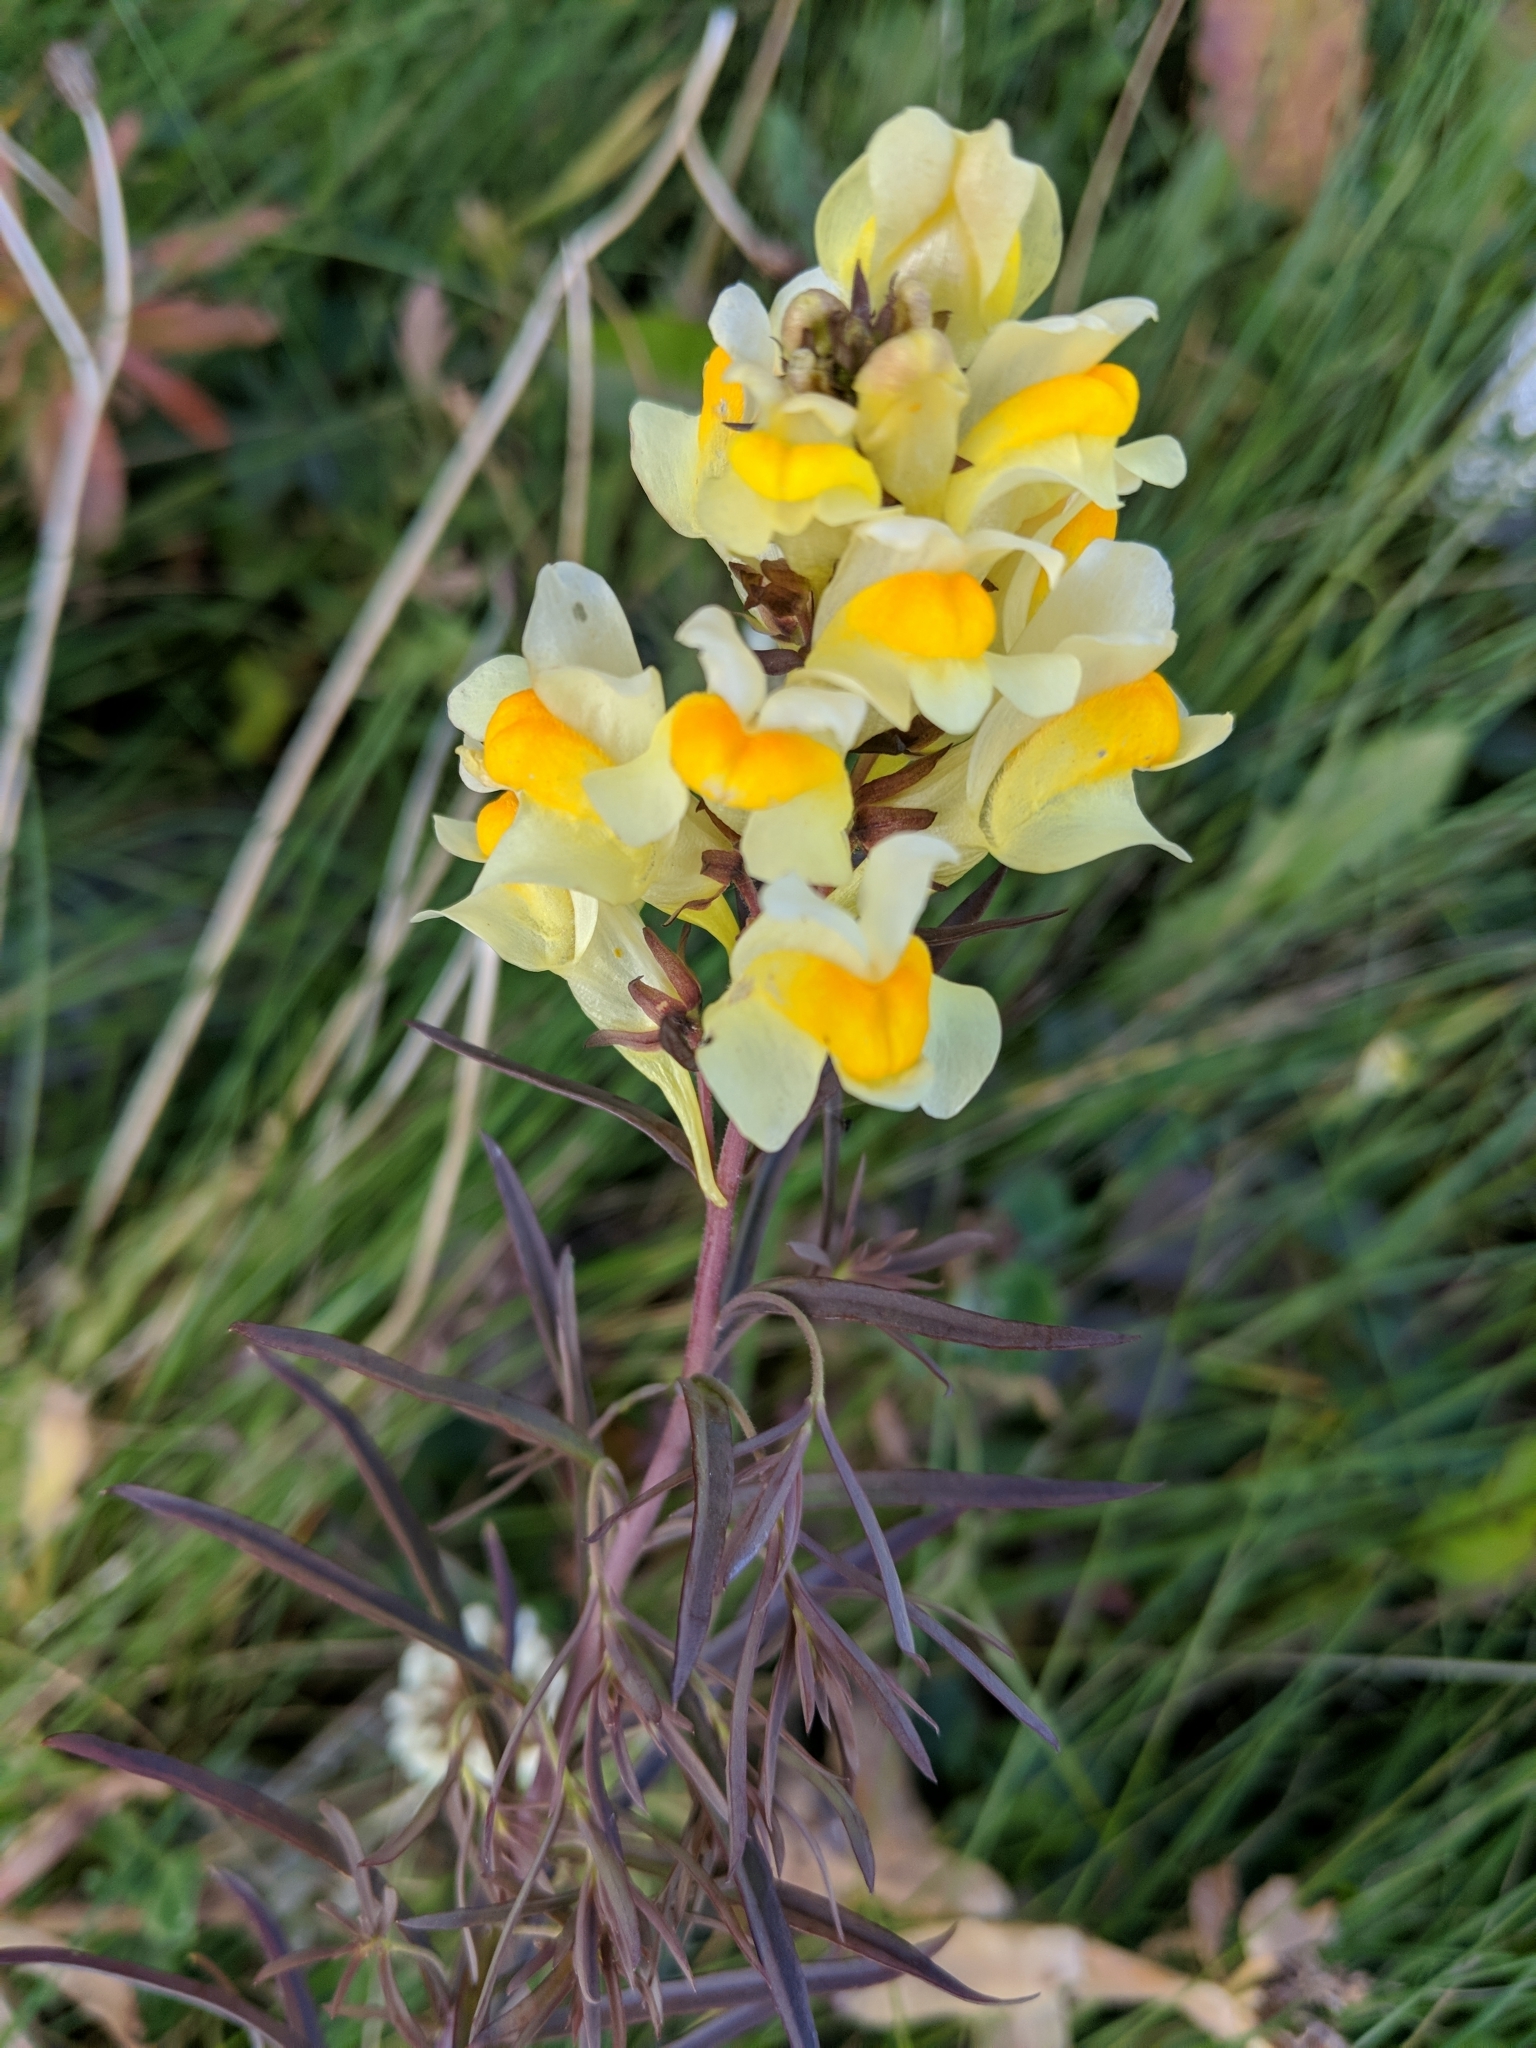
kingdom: Plantae
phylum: Tracheophyta
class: Magnoliopsida
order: Lamiales
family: Plantaginaceae
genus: Linaria
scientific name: Linaria vulgaris
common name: Butter and eggs
